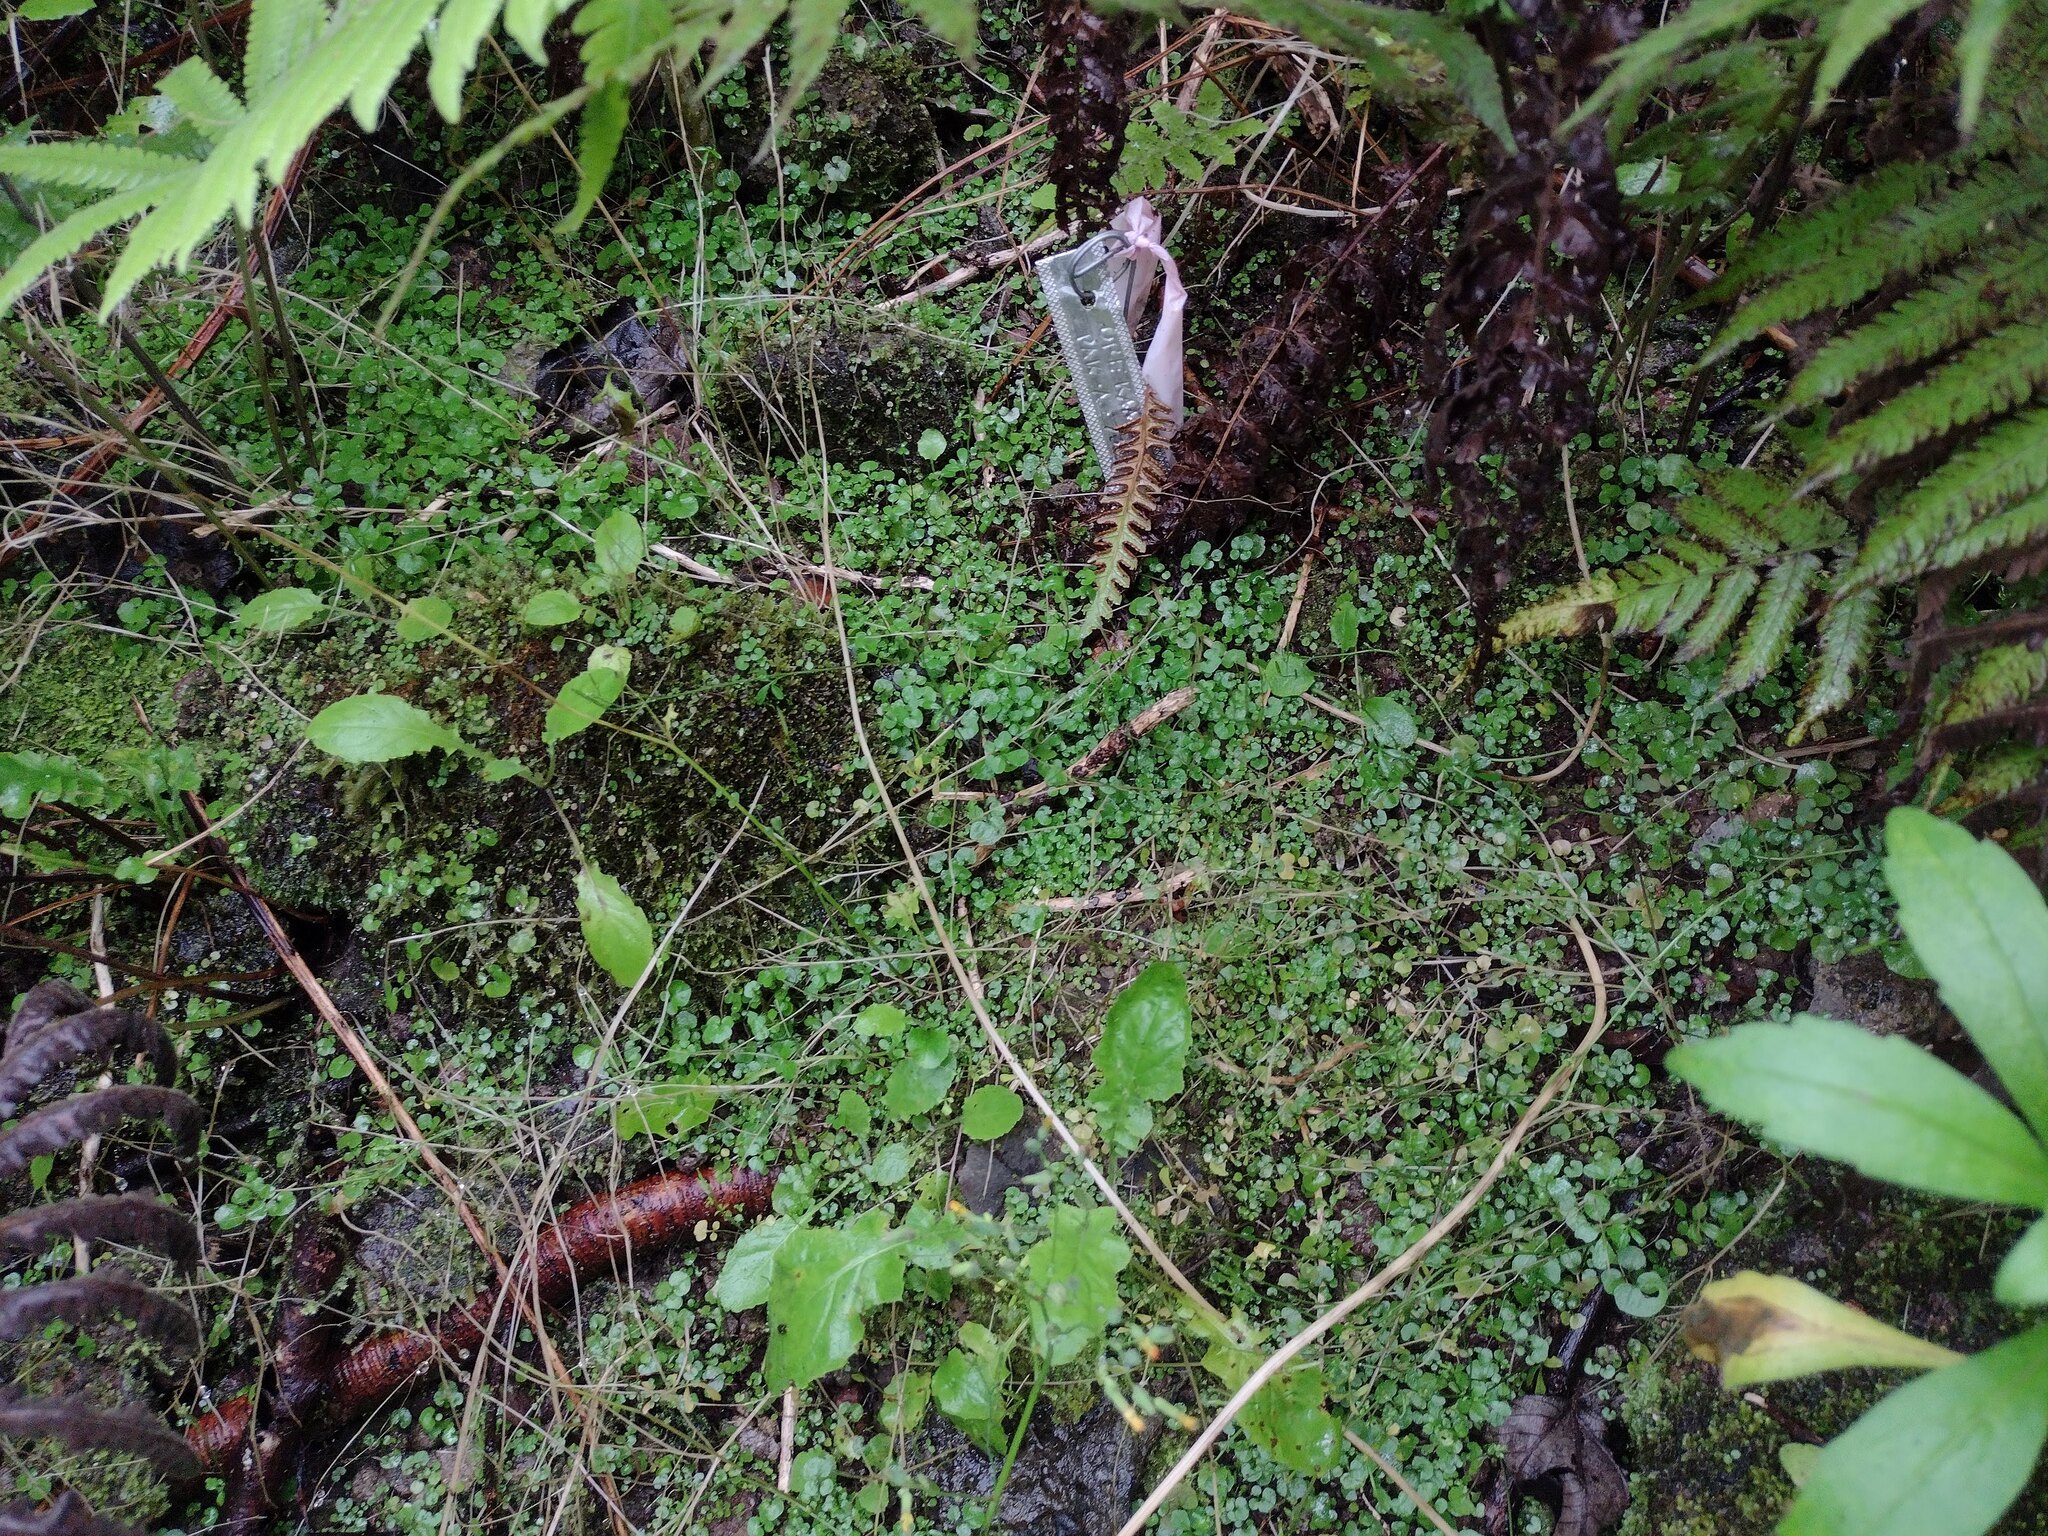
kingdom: Plantae
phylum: Tracheophyta
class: Magnoliopsida
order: Brassicales
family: Brassicaceae
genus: Cardamine
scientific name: Cardamine hirsuta
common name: Hairy bittercress
